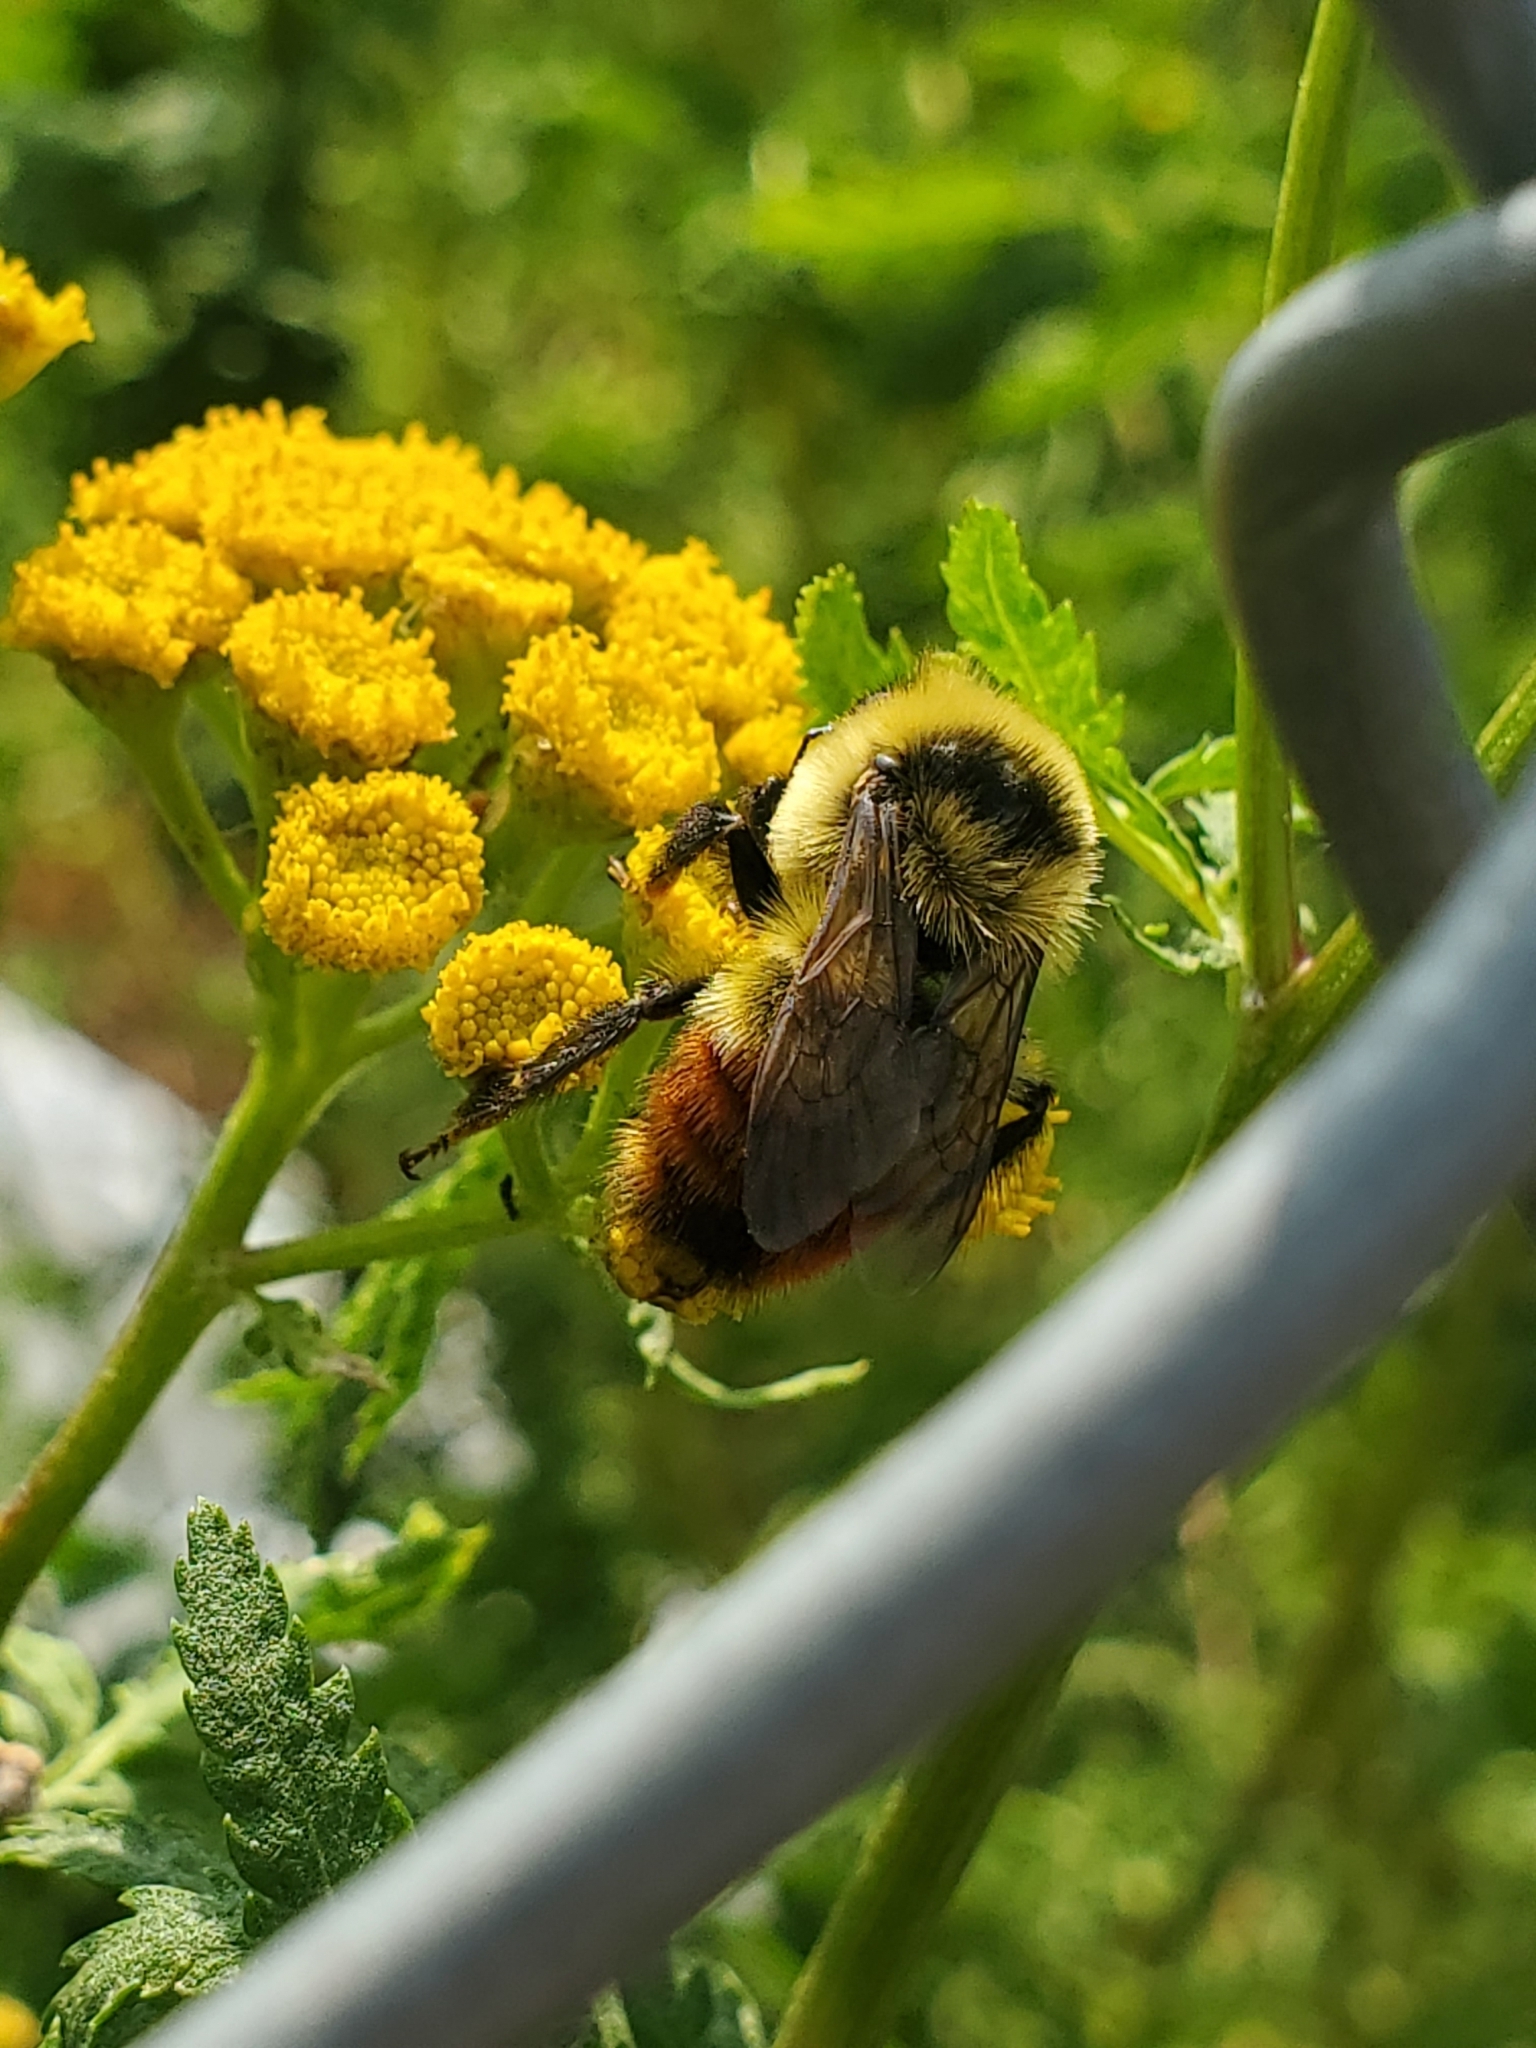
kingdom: Animalia
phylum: Arthropoda
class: Insecta
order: Hymenoptera
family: Apidae
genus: Bombus
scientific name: Bombus rufocinctus
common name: Red-belted bumble bee
